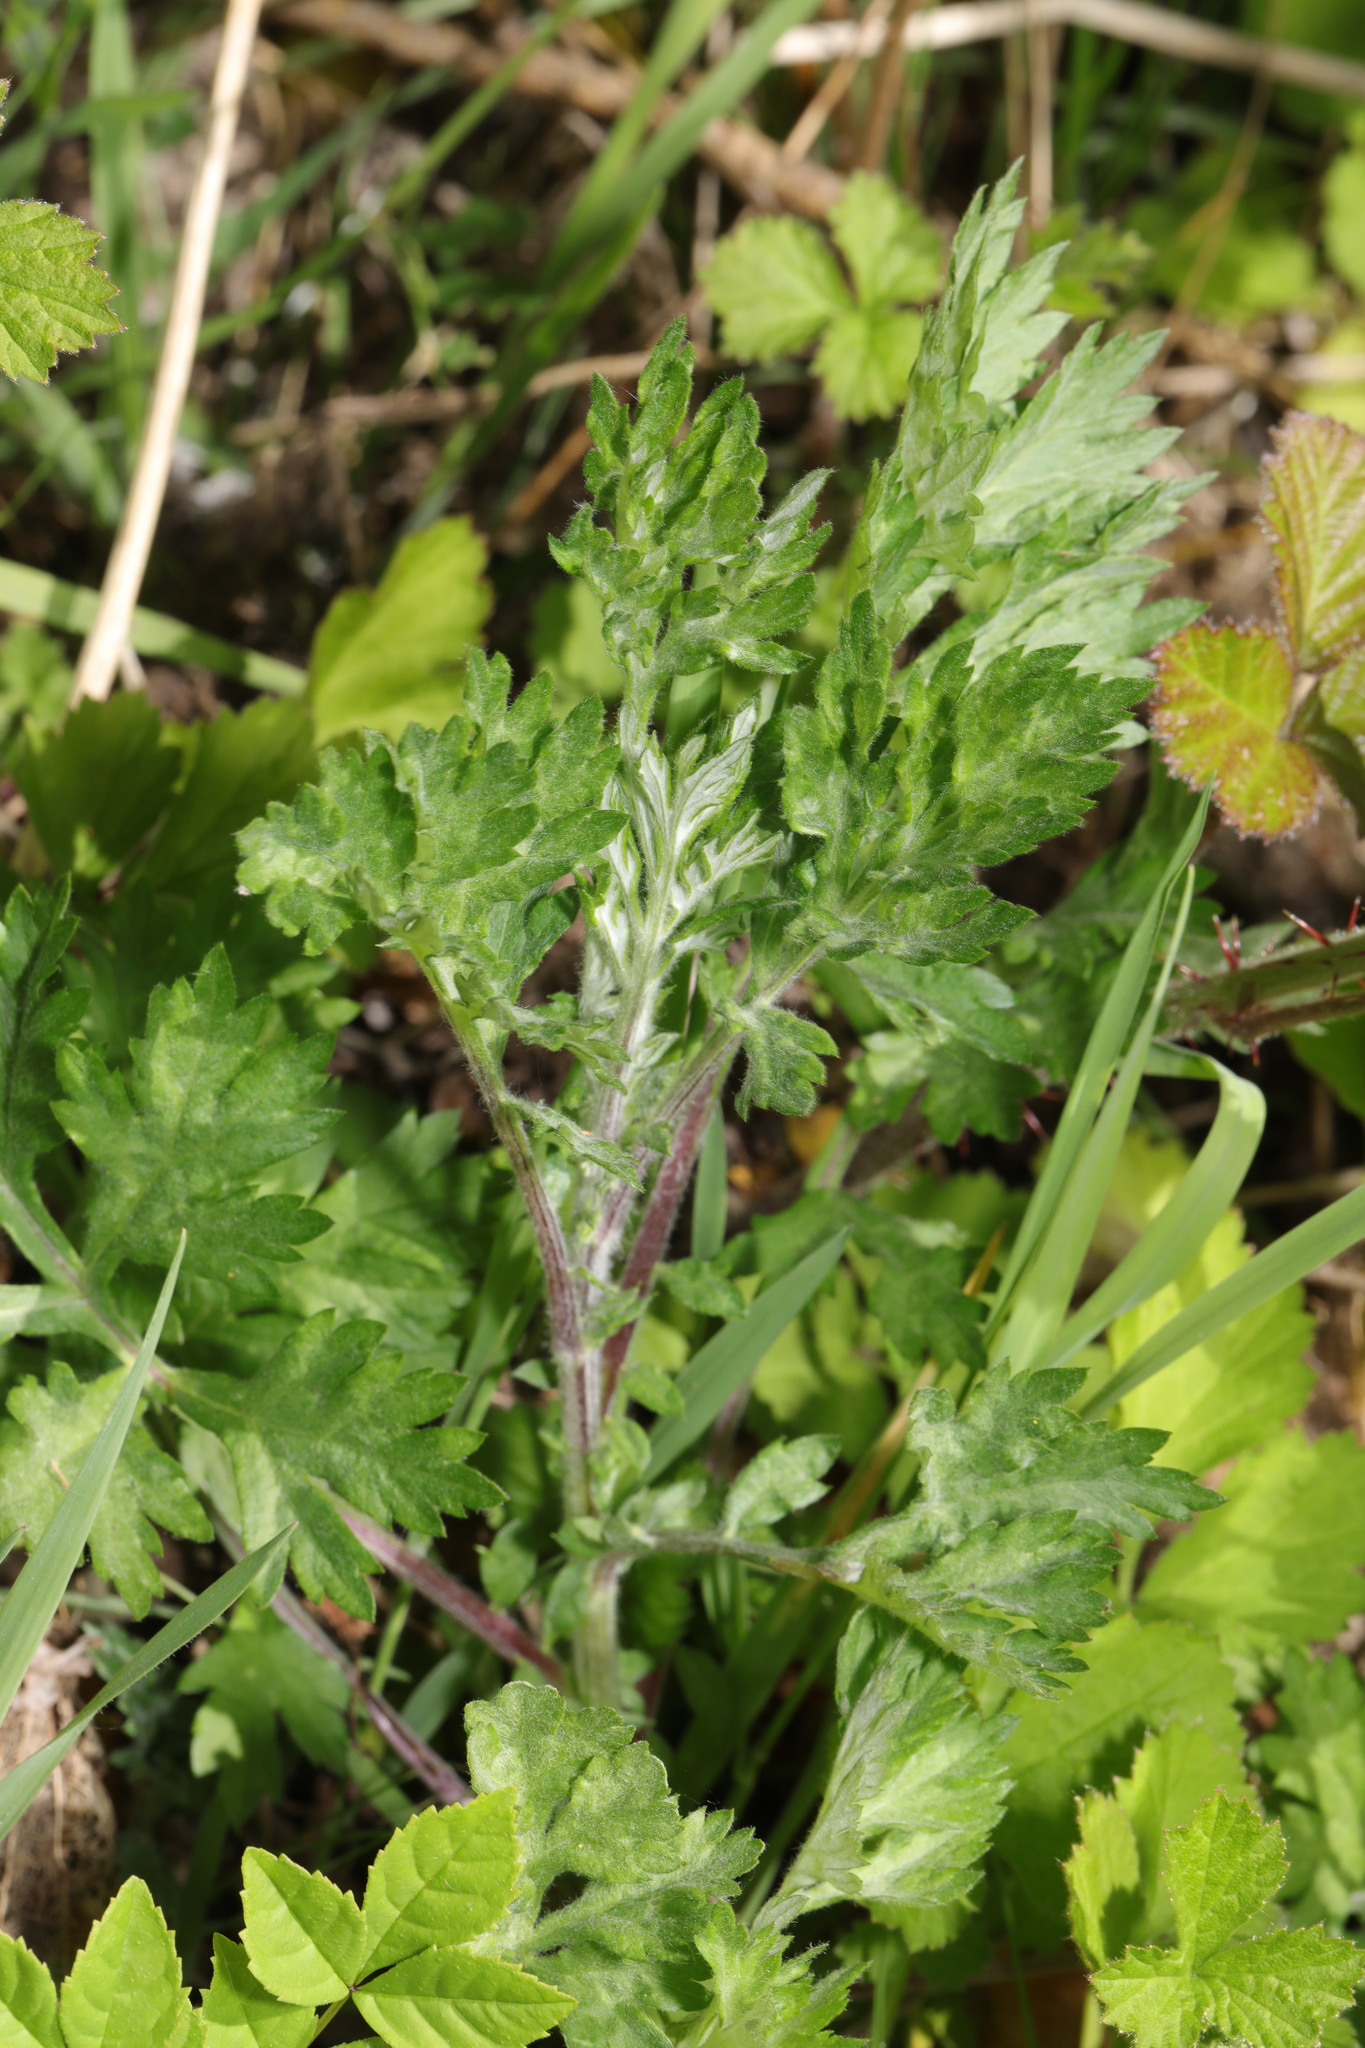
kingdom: Plantae
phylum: Tracheophyta
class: Magnoliopsida
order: Asterales
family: Asteraceae
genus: Artemisia
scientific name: Artemisia vulgaris
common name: Mugwort
